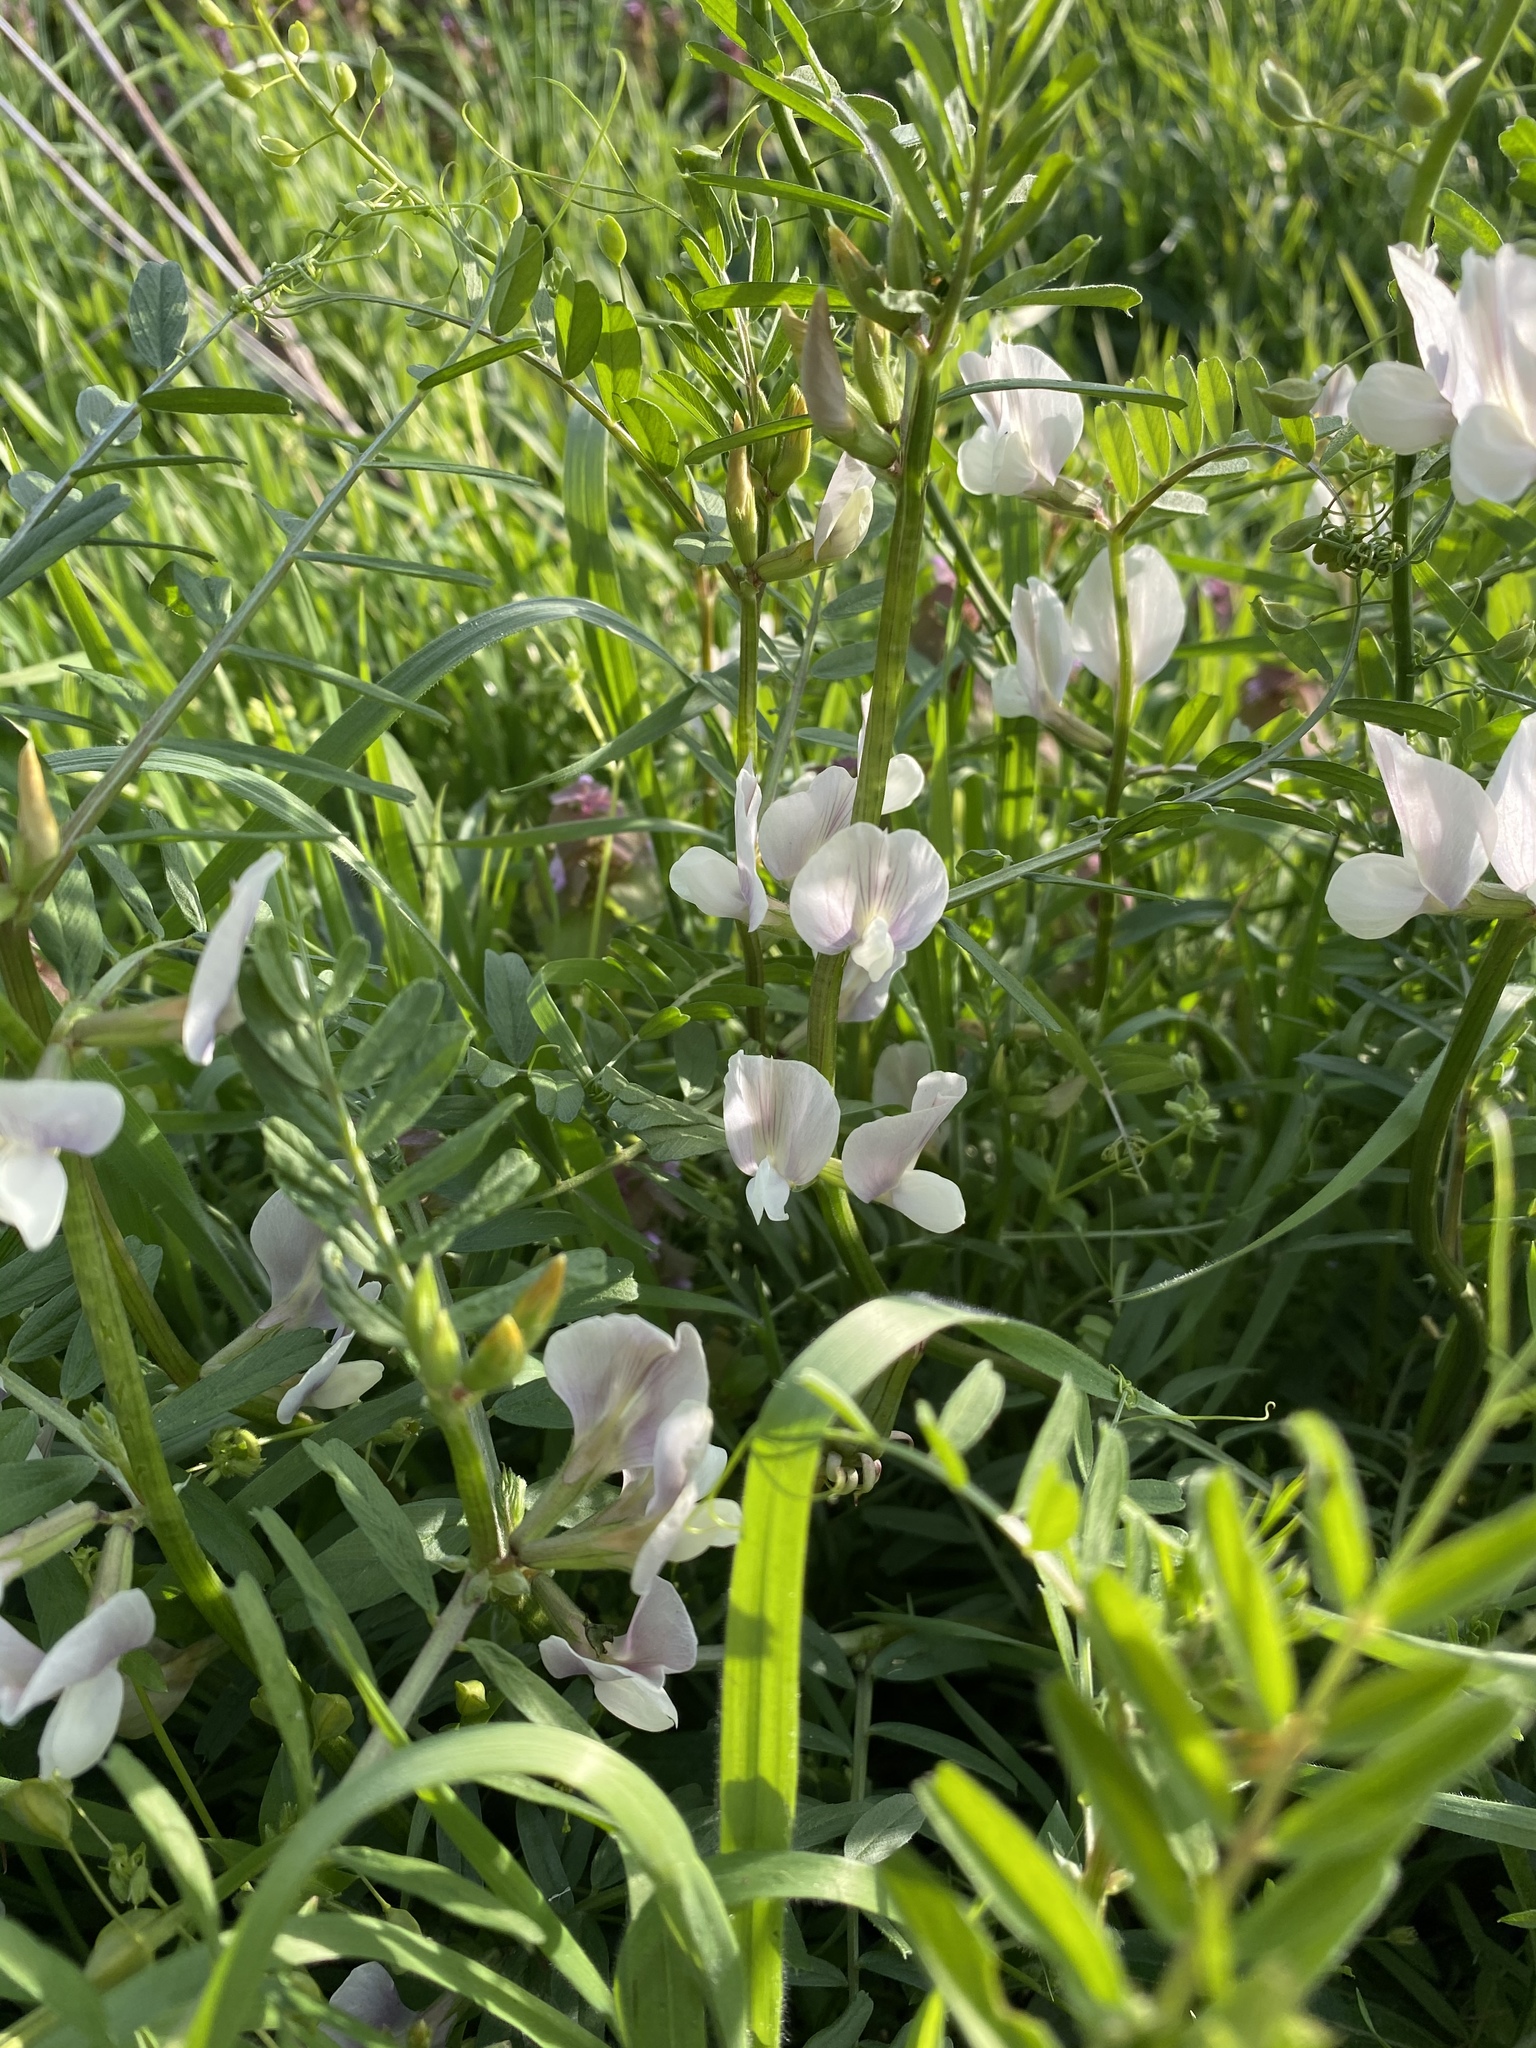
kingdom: Plantae
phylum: Tracheophyta
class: Magnoliopsida
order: Fabales
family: Fabaceae
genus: Vicia
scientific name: Vicia grandiflora
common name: Large yellow vetch
